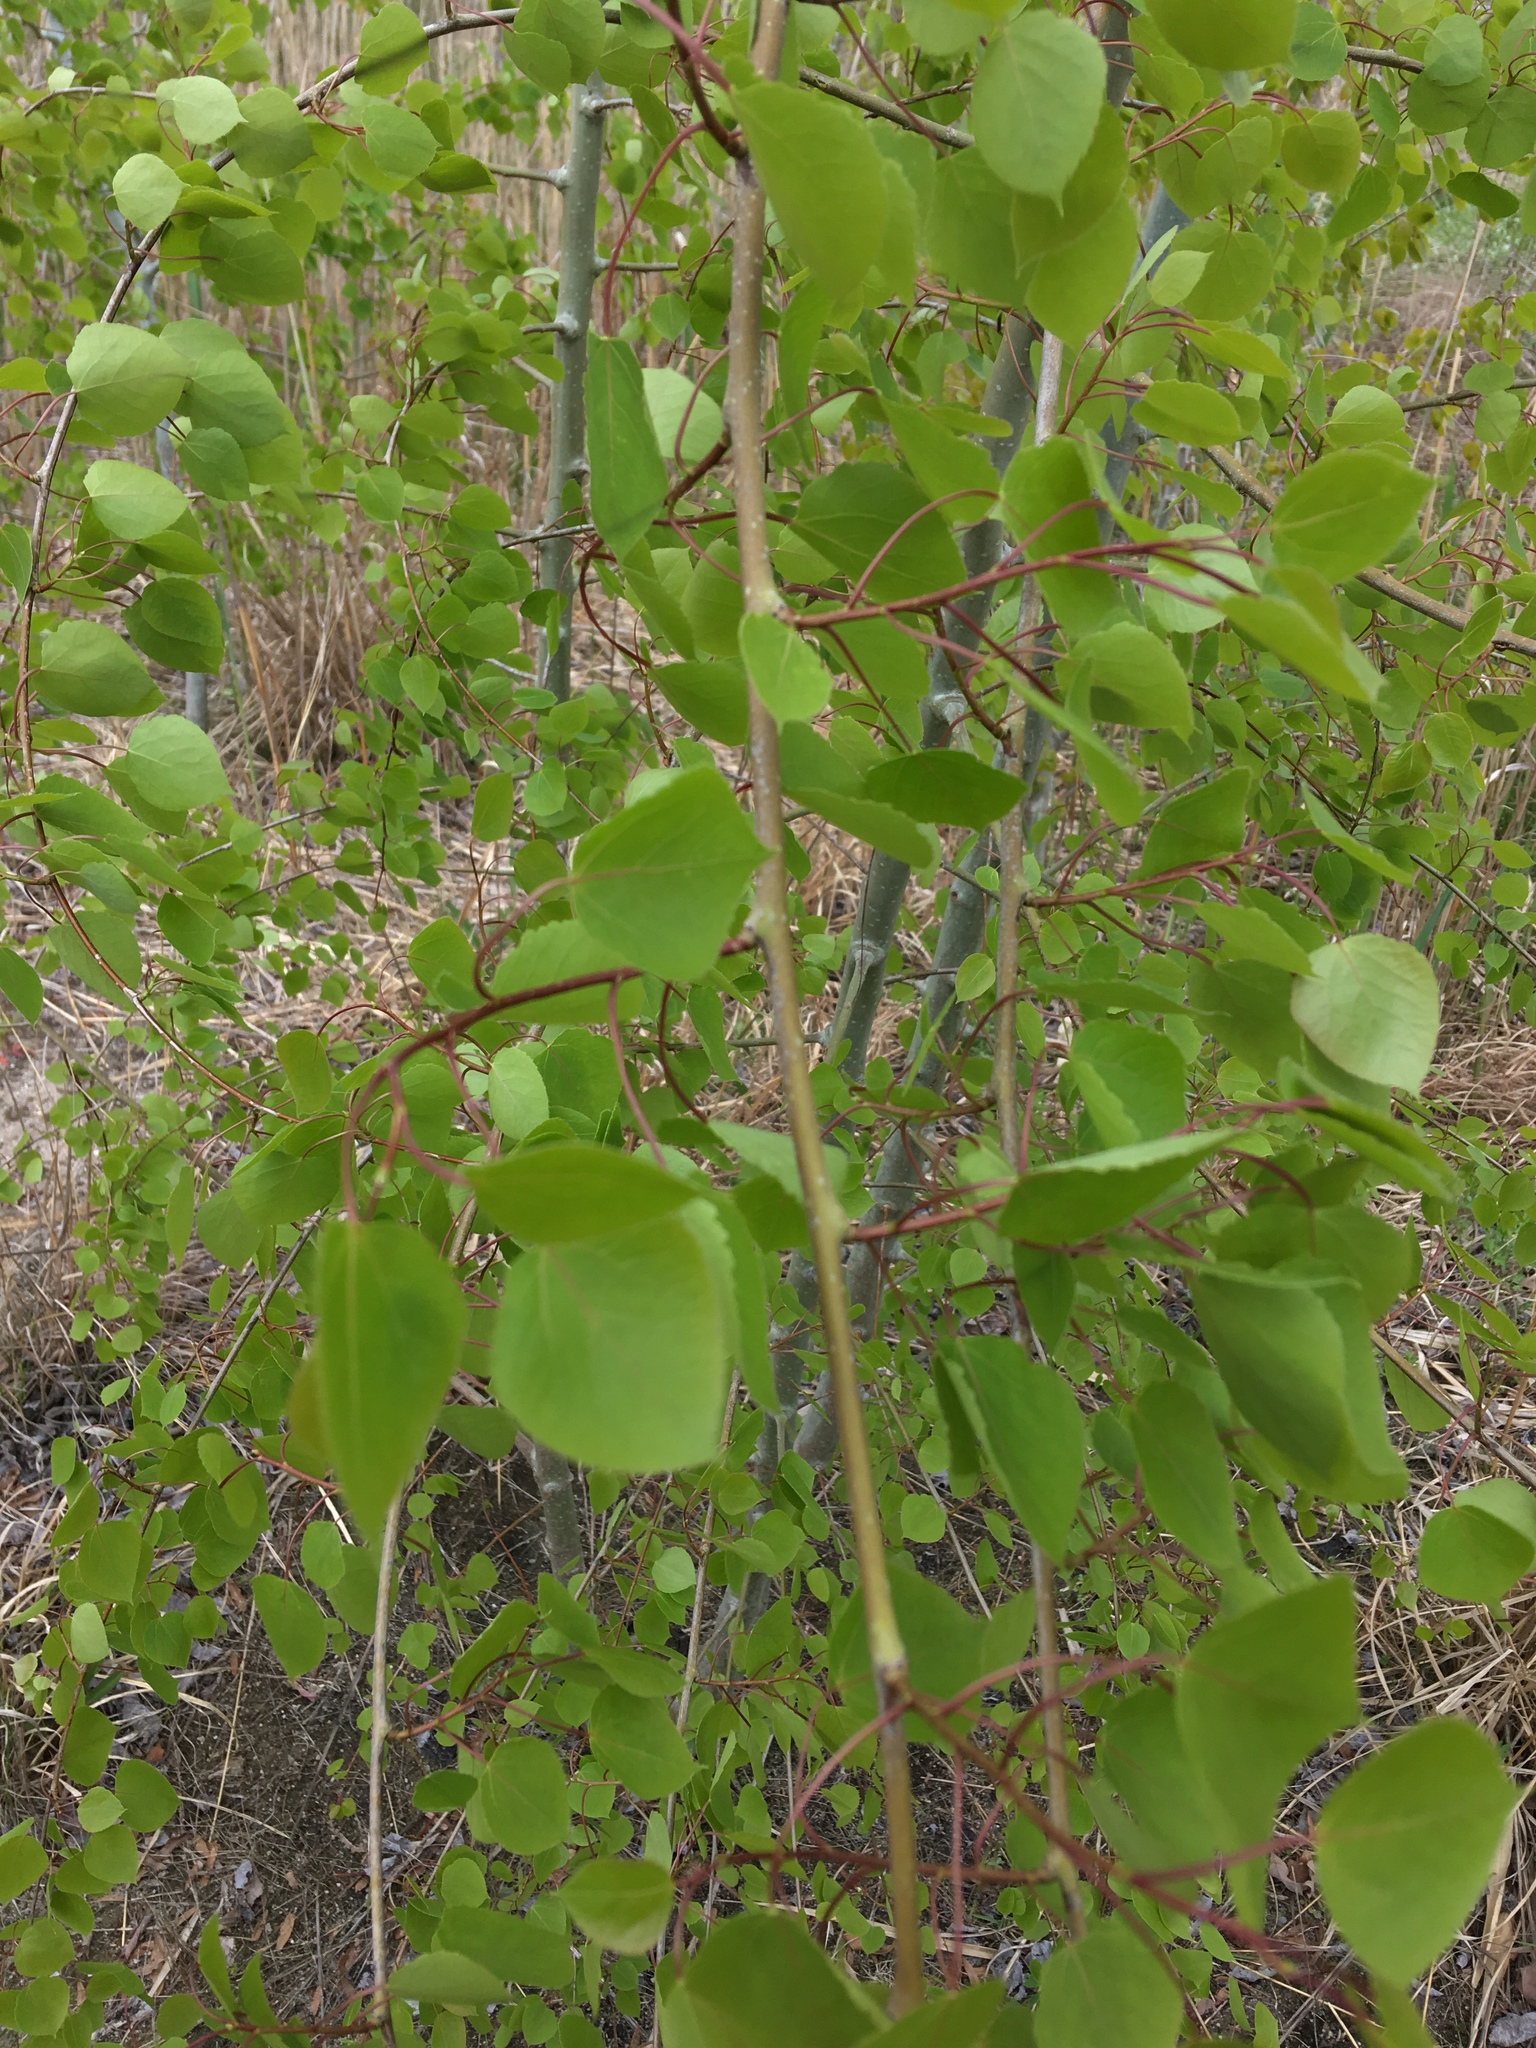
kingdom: Plantae
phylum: Tracheophyta
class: Magnoliopsida
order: Malpighiales
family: Salicaceae
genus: Populus
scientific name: Populus tremuloides
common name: Quaking aspen
